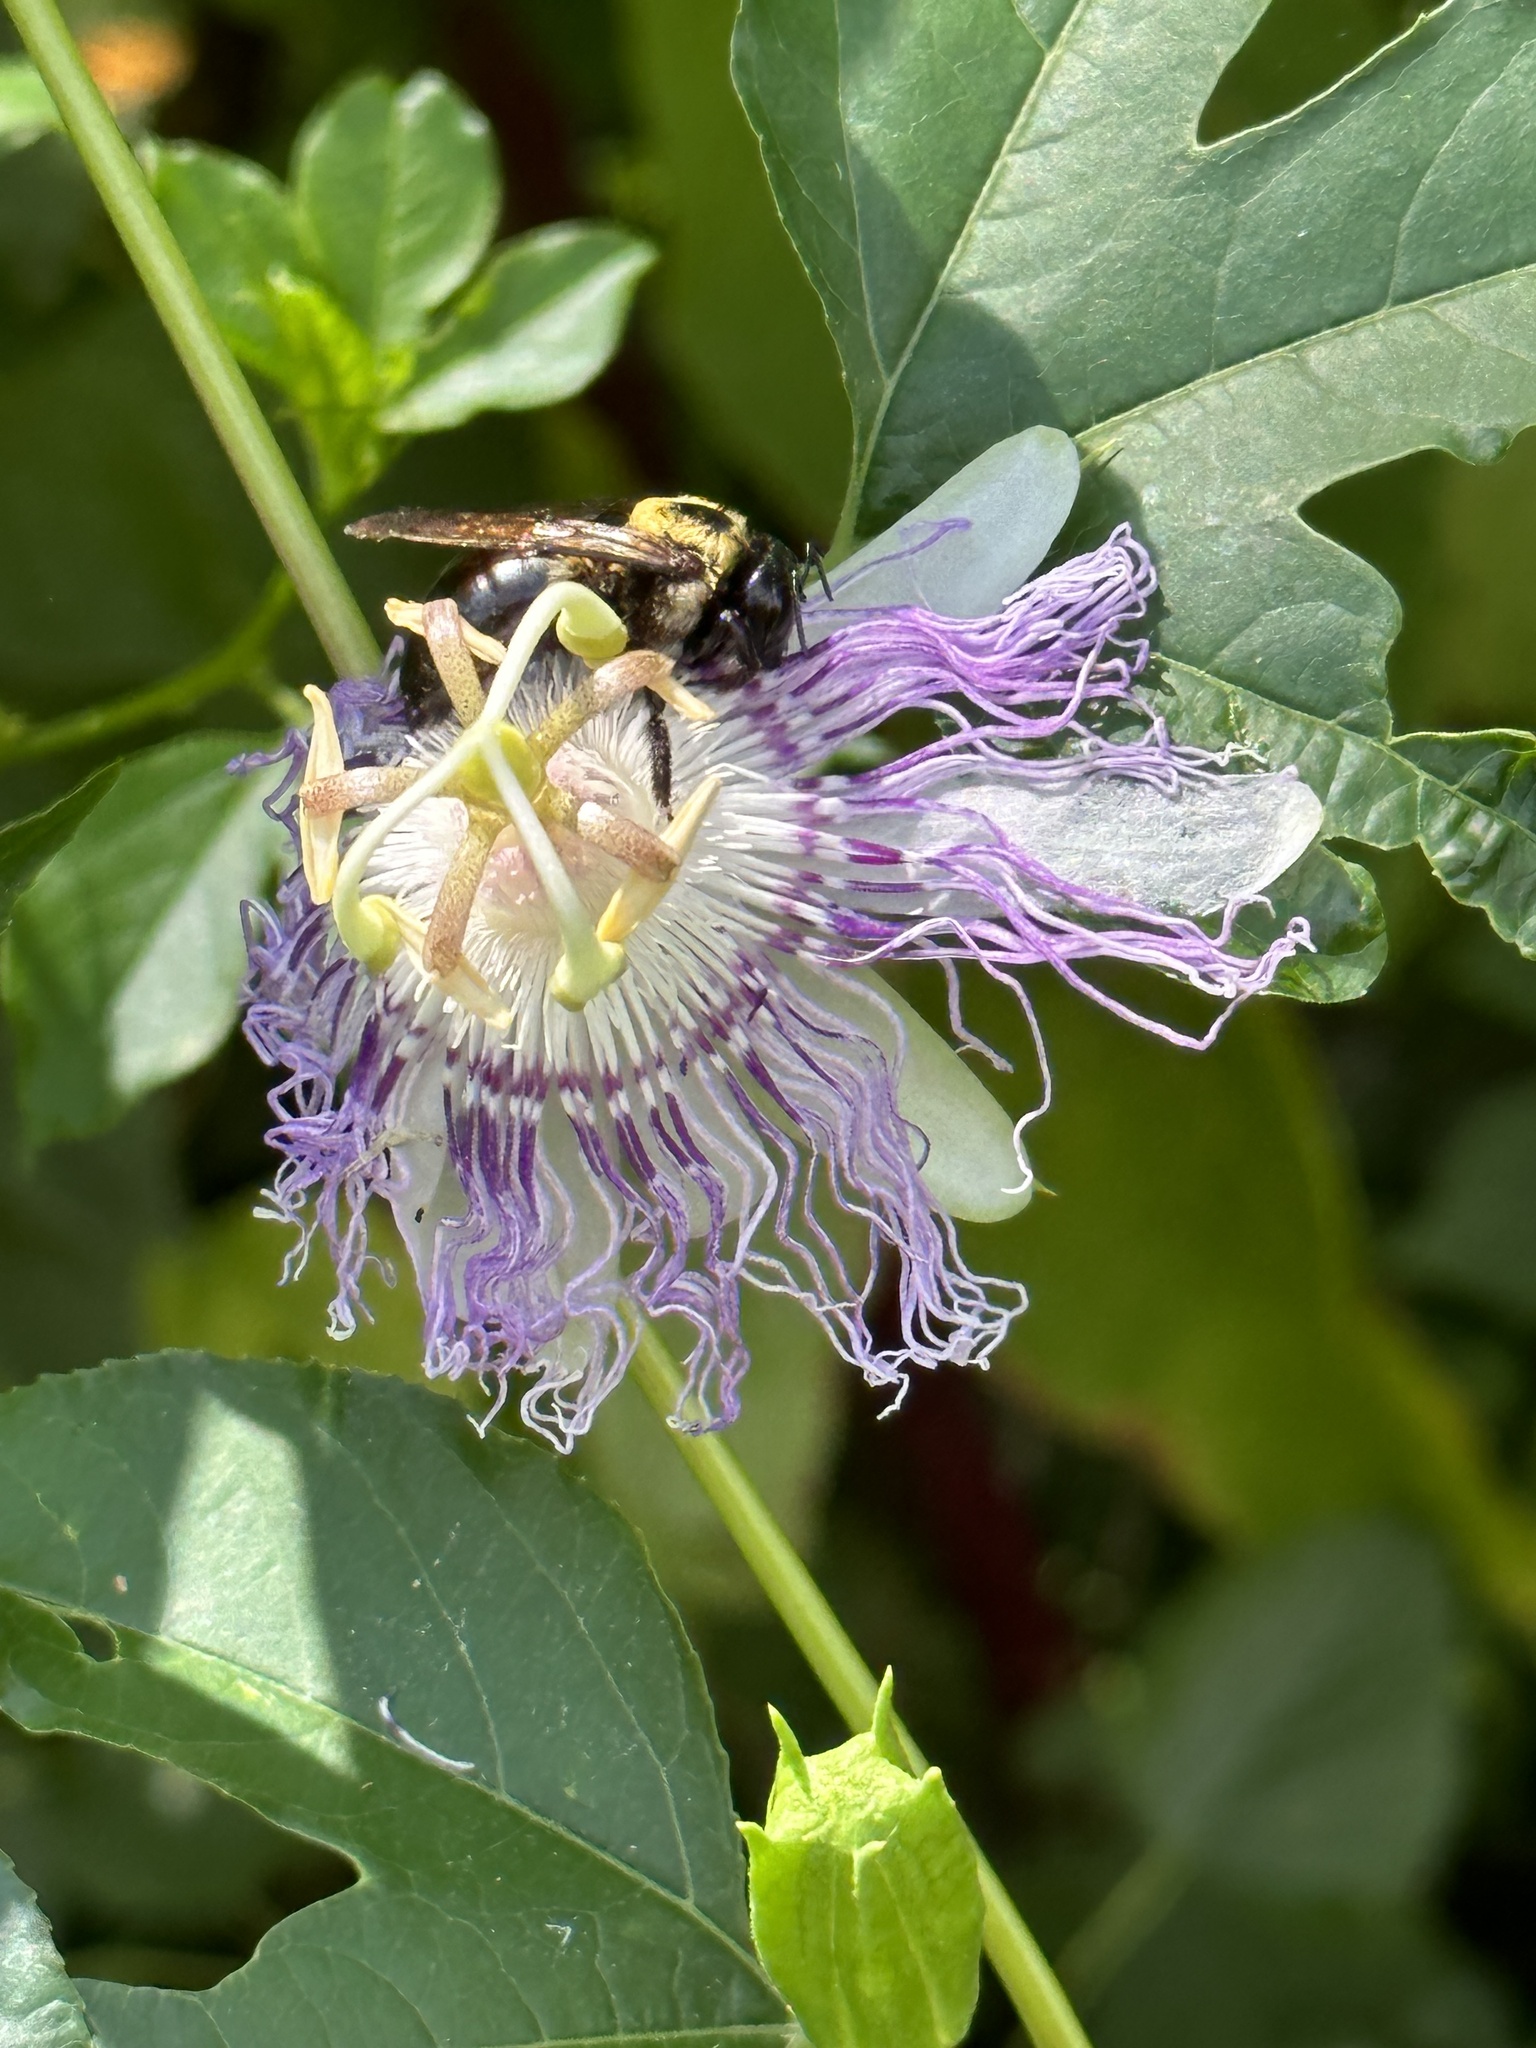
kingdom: Animalia
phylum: Arthropoda
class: Insecta
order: Hymenoptera
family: Apidae
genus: Xylocopa
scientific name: Xylocopa virginica
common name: Carpenter bee
